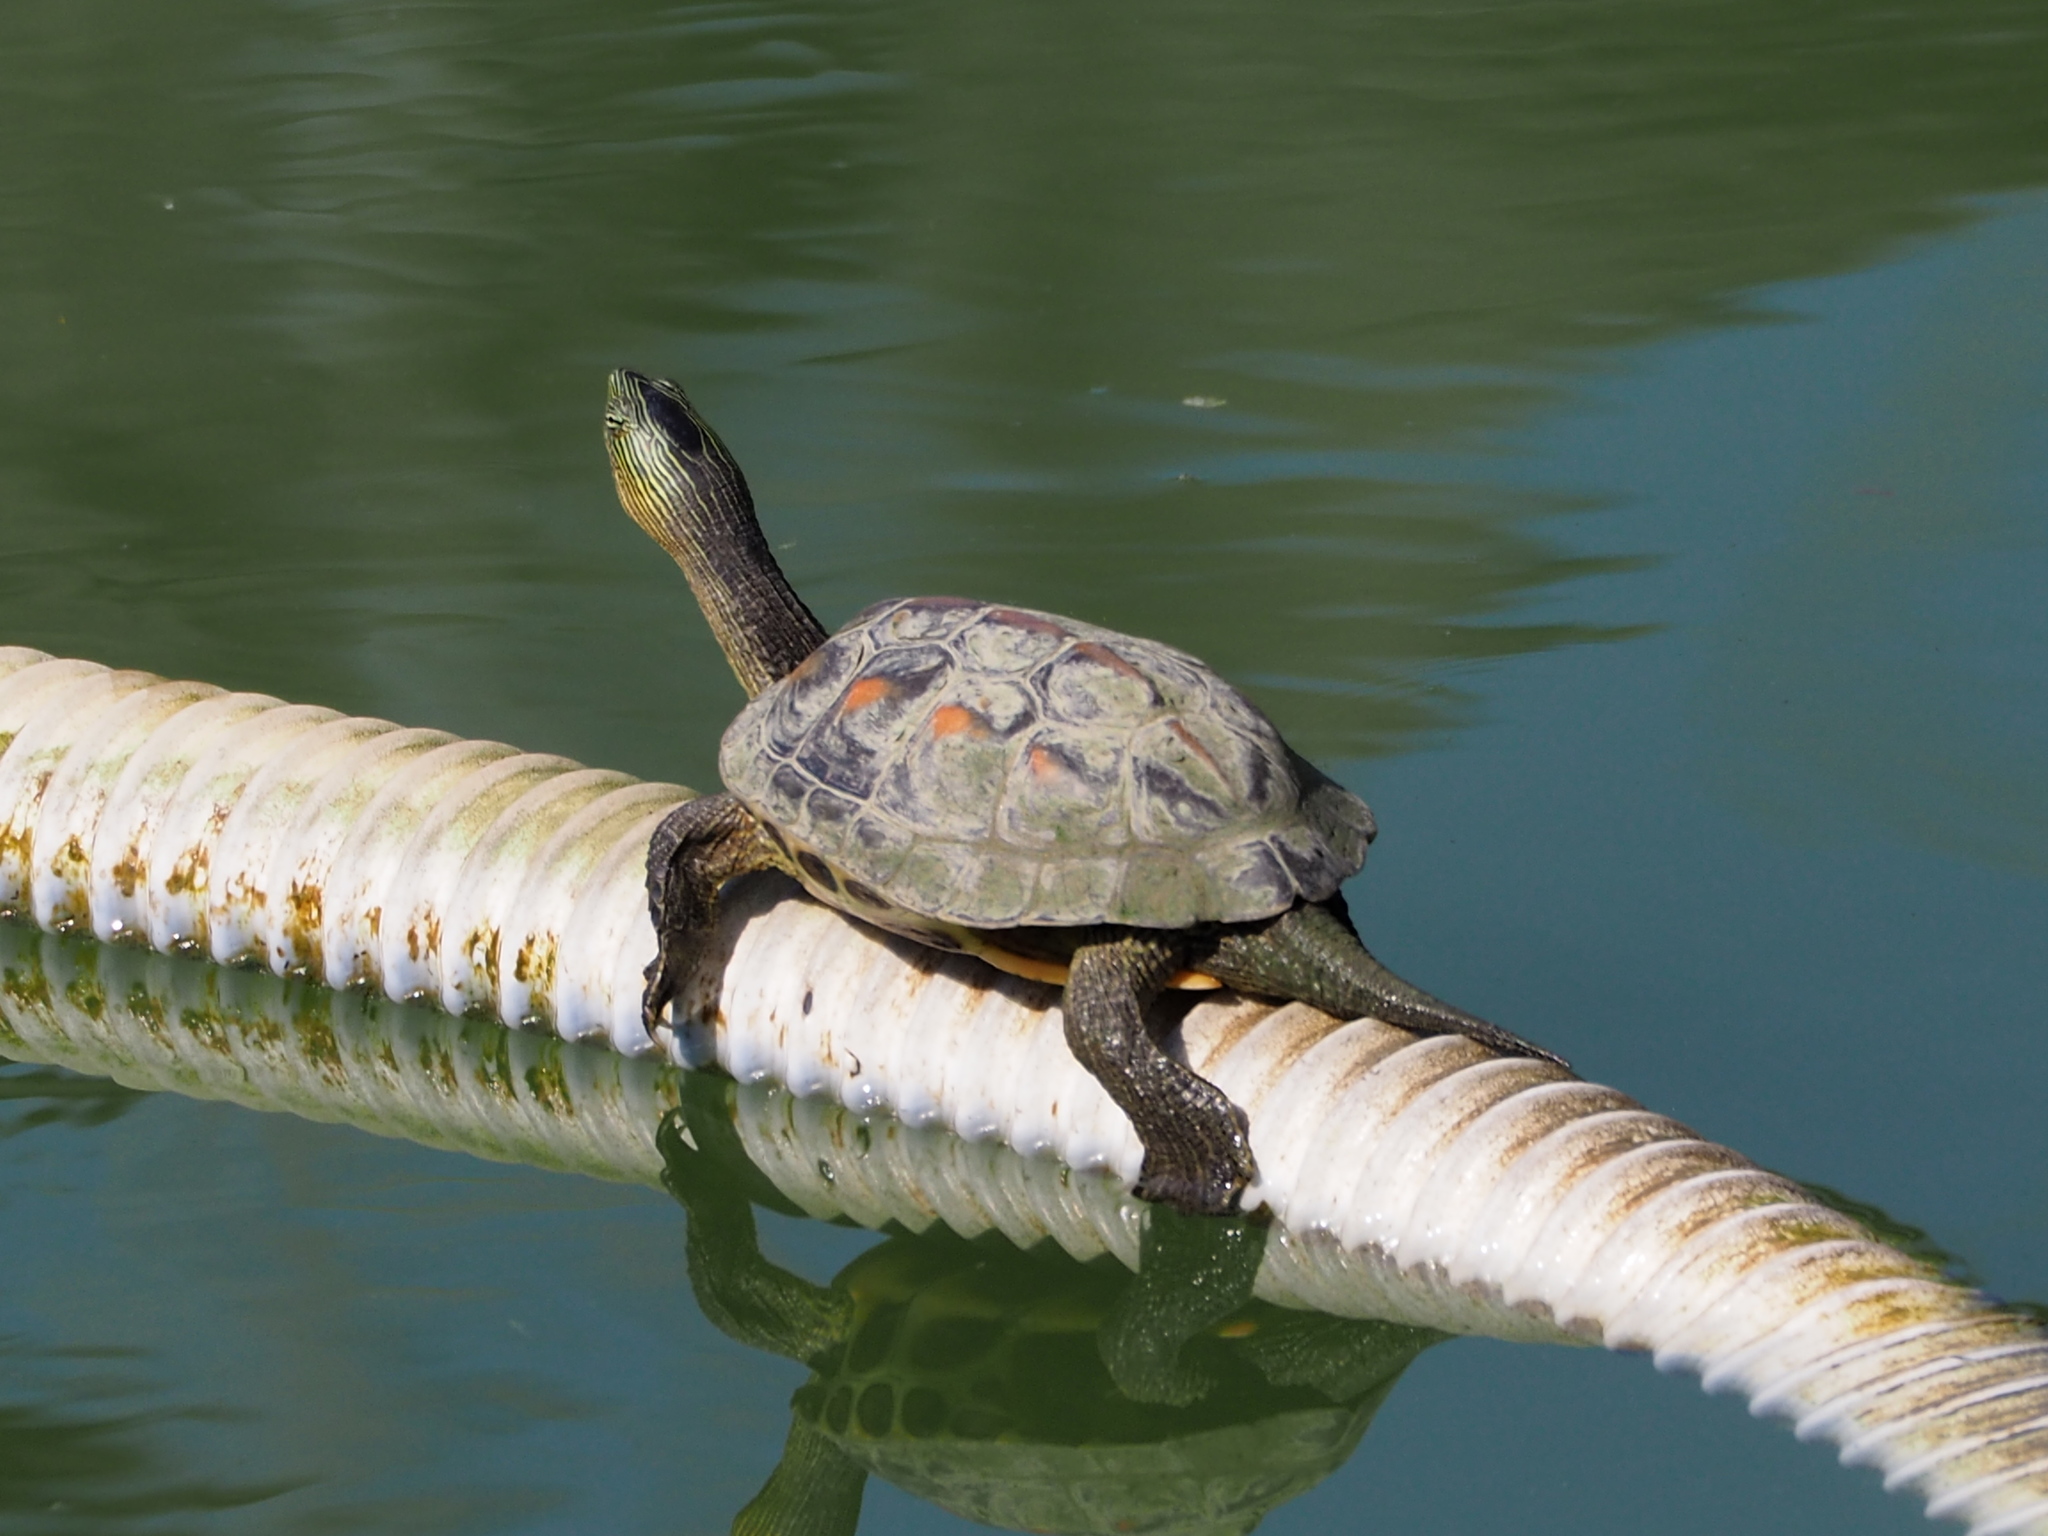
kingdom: Animalia
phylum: Chordata
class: Testudines
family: Geoemydidae
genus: Mauremys
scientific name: Mauremys sinensis
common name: Chinese stripe-necked turtle
